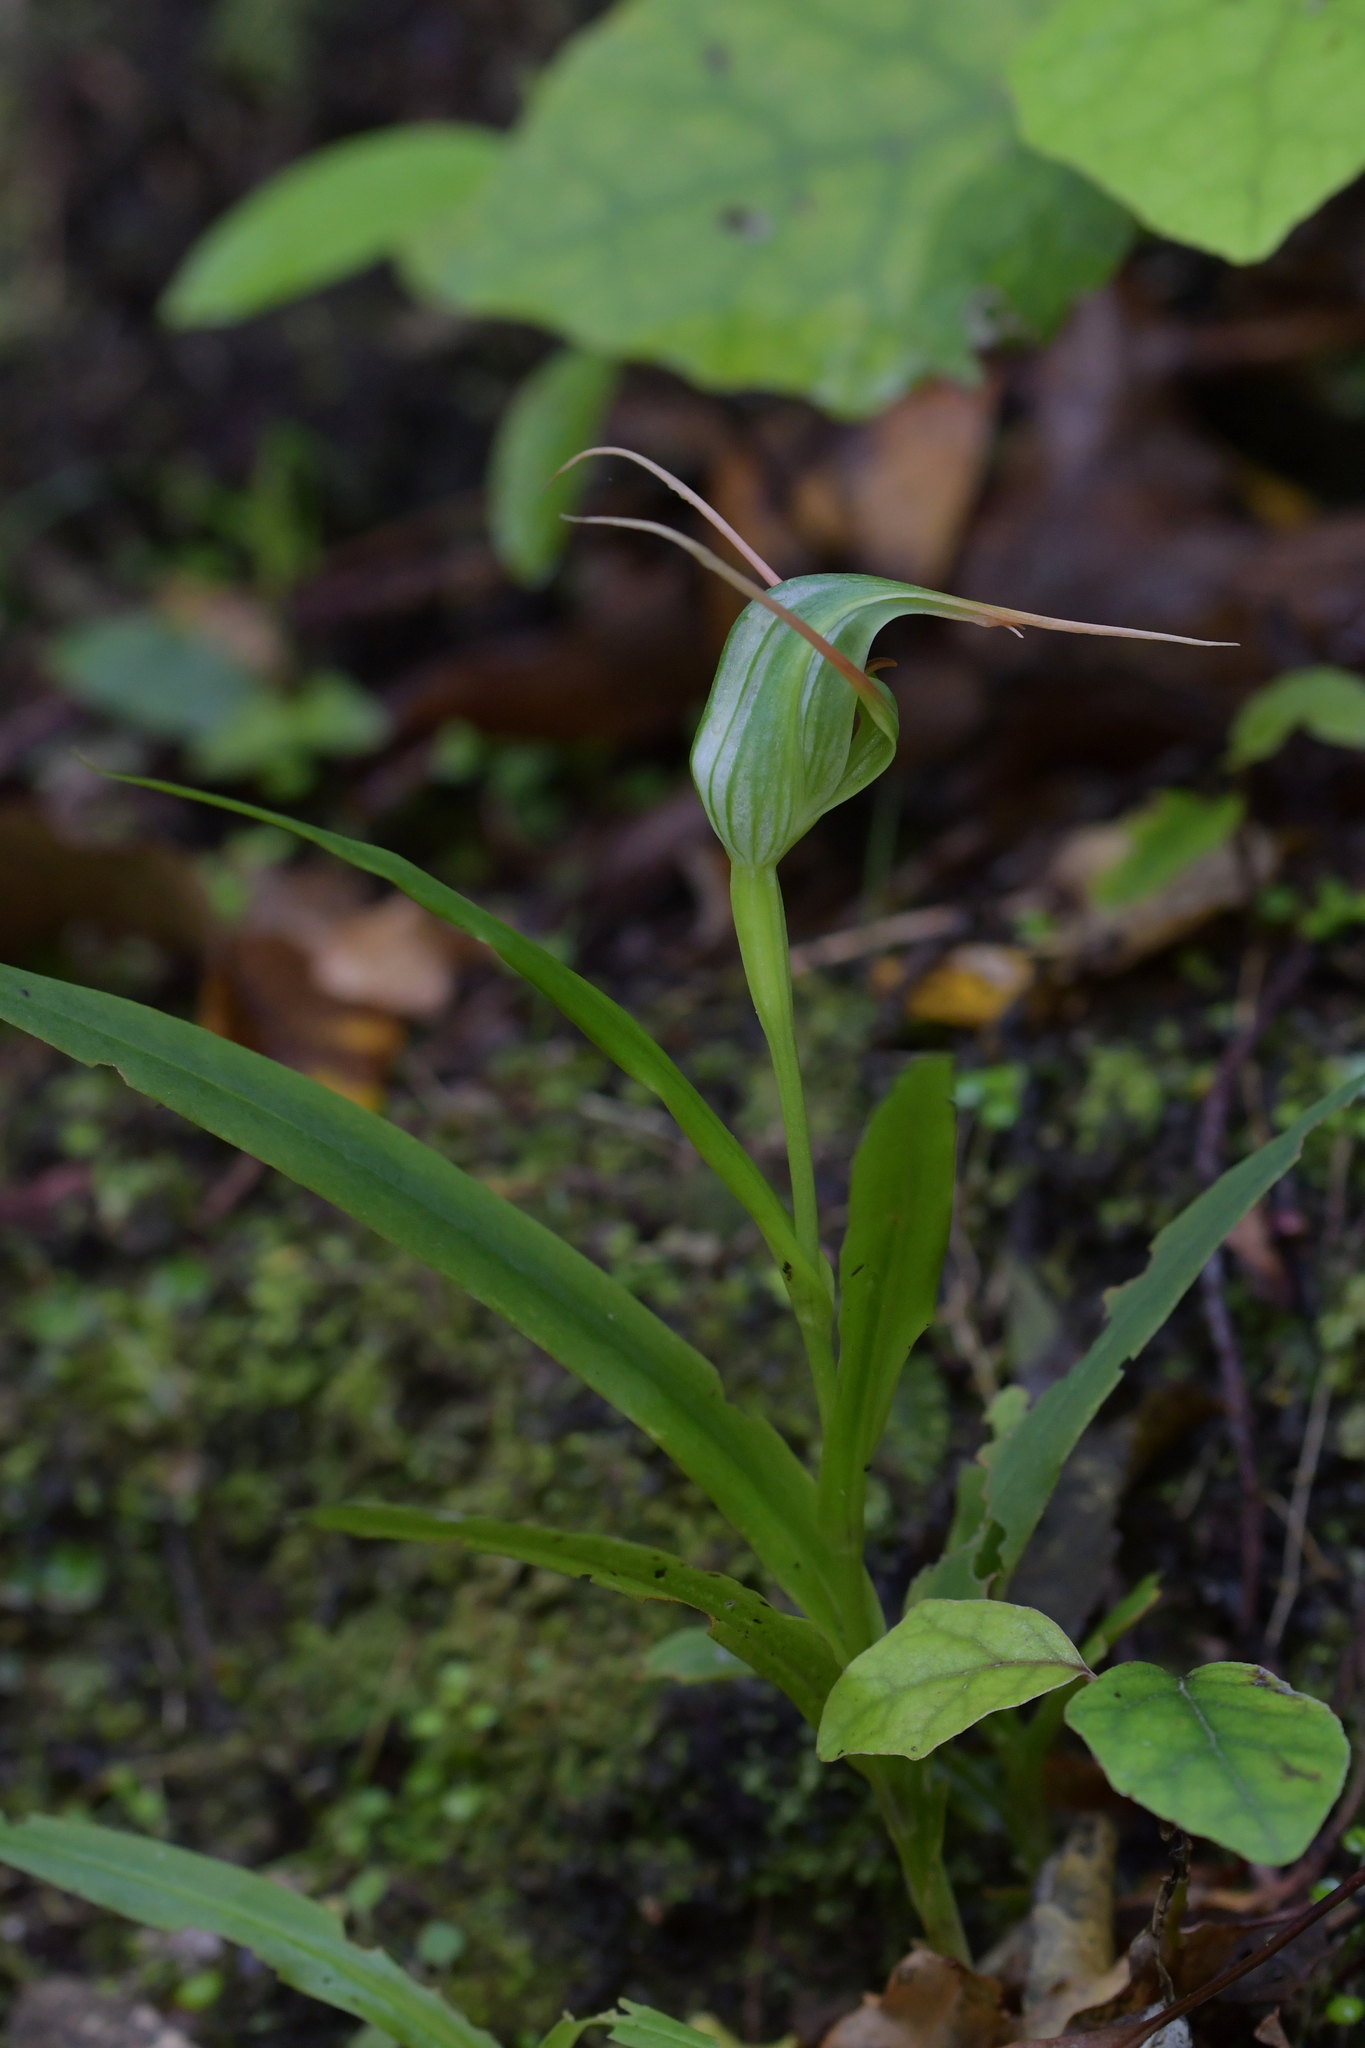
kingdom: Plantae
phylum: Tracheophyta
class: Liliopsida
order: Asparagales
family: Orchidaceae
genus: Pterostylis
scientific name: Pterostylis banksii
